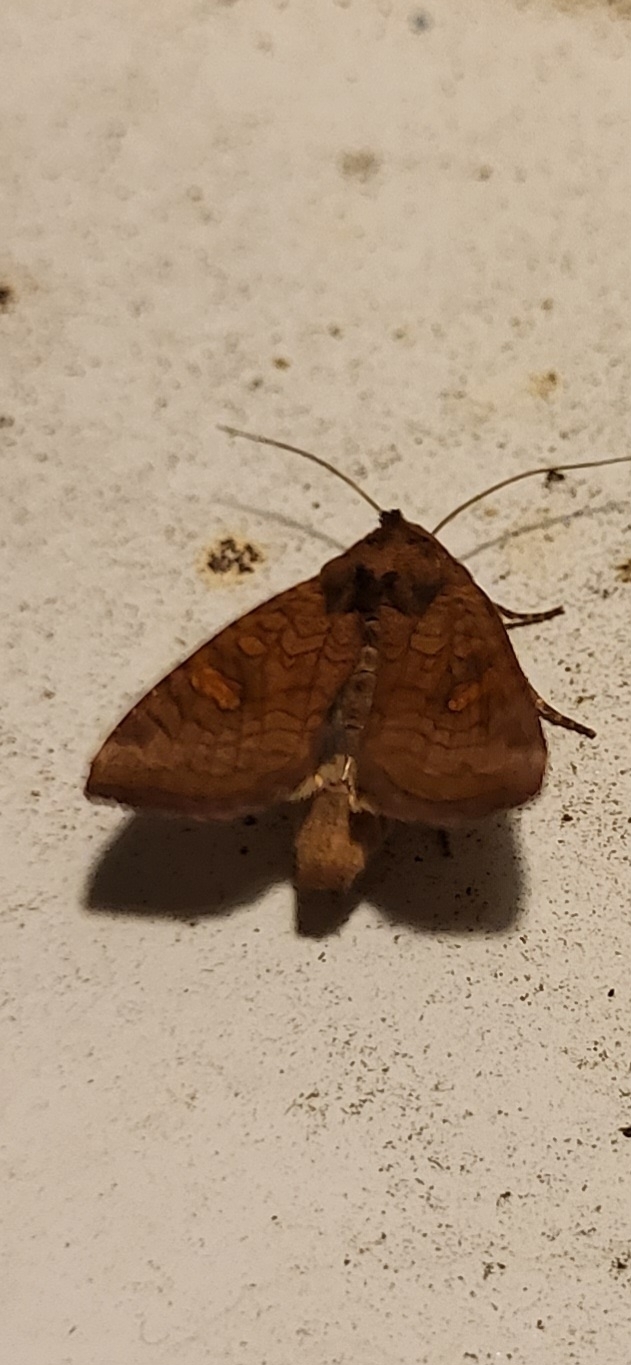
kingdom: Animalia
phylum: Arthropoda
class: Insecta
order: Lepidoptera
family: Noctuidae
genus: Amphipoea
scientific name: Amphipoea
